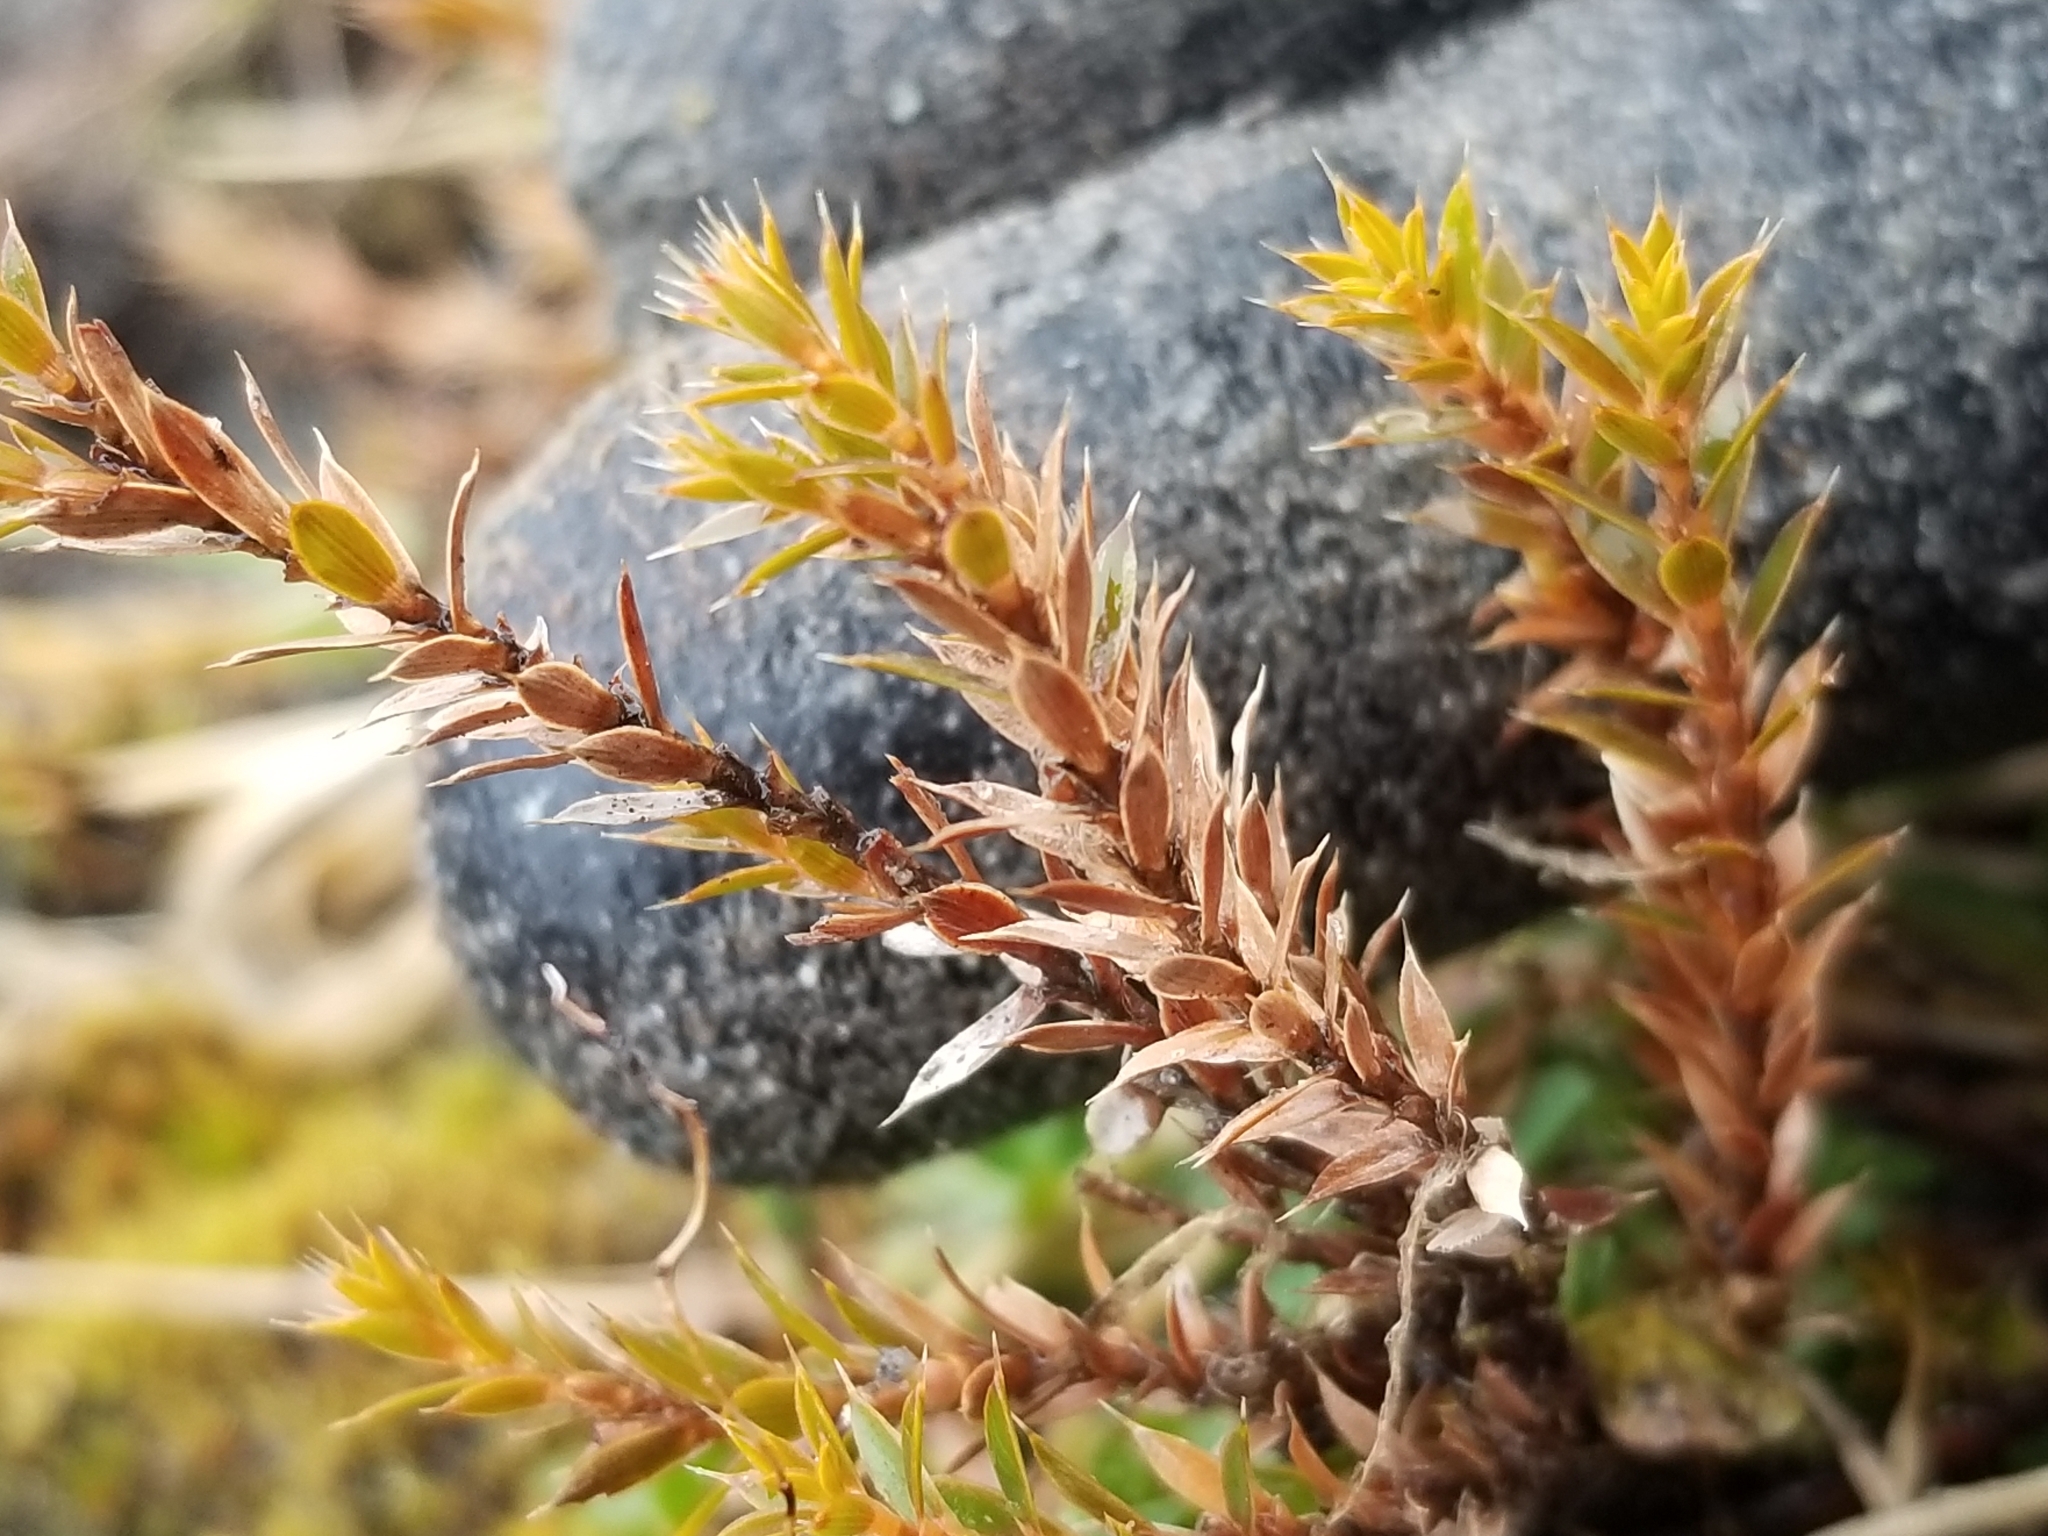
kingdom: Plantae
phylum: Tracheophyta
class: Magnoliopsida
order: Ericales
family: Ericaceae
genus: Styphelia
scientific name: Styphelia nesophila
